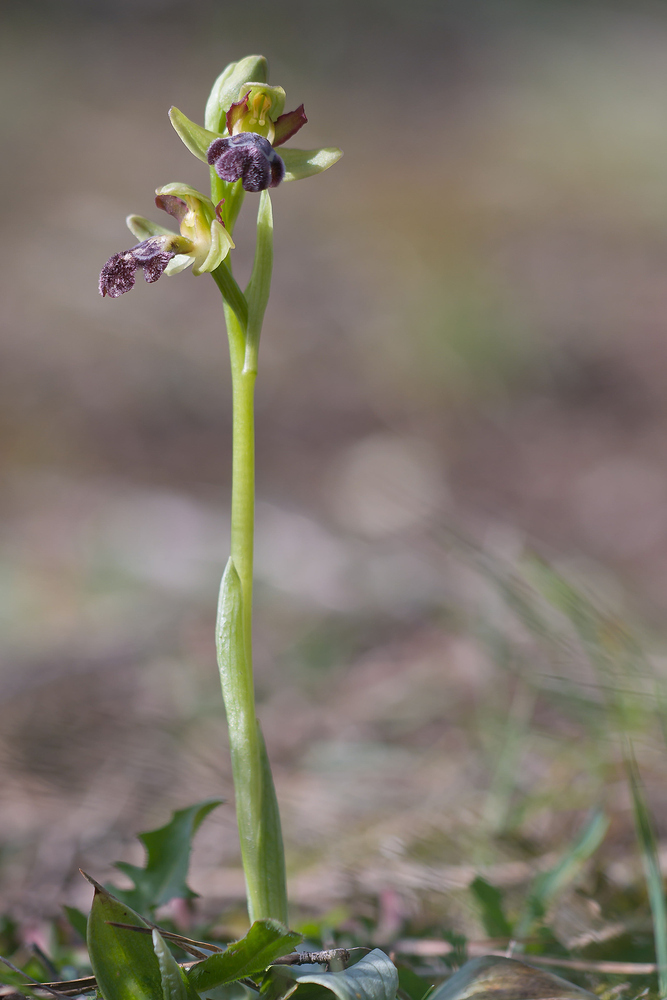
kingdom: Plantae
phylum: Tracheophyta
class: Liliopsida
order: Asparagales
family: Orchidaceae
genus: Ophrys
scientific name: Ophrys omegaifera
